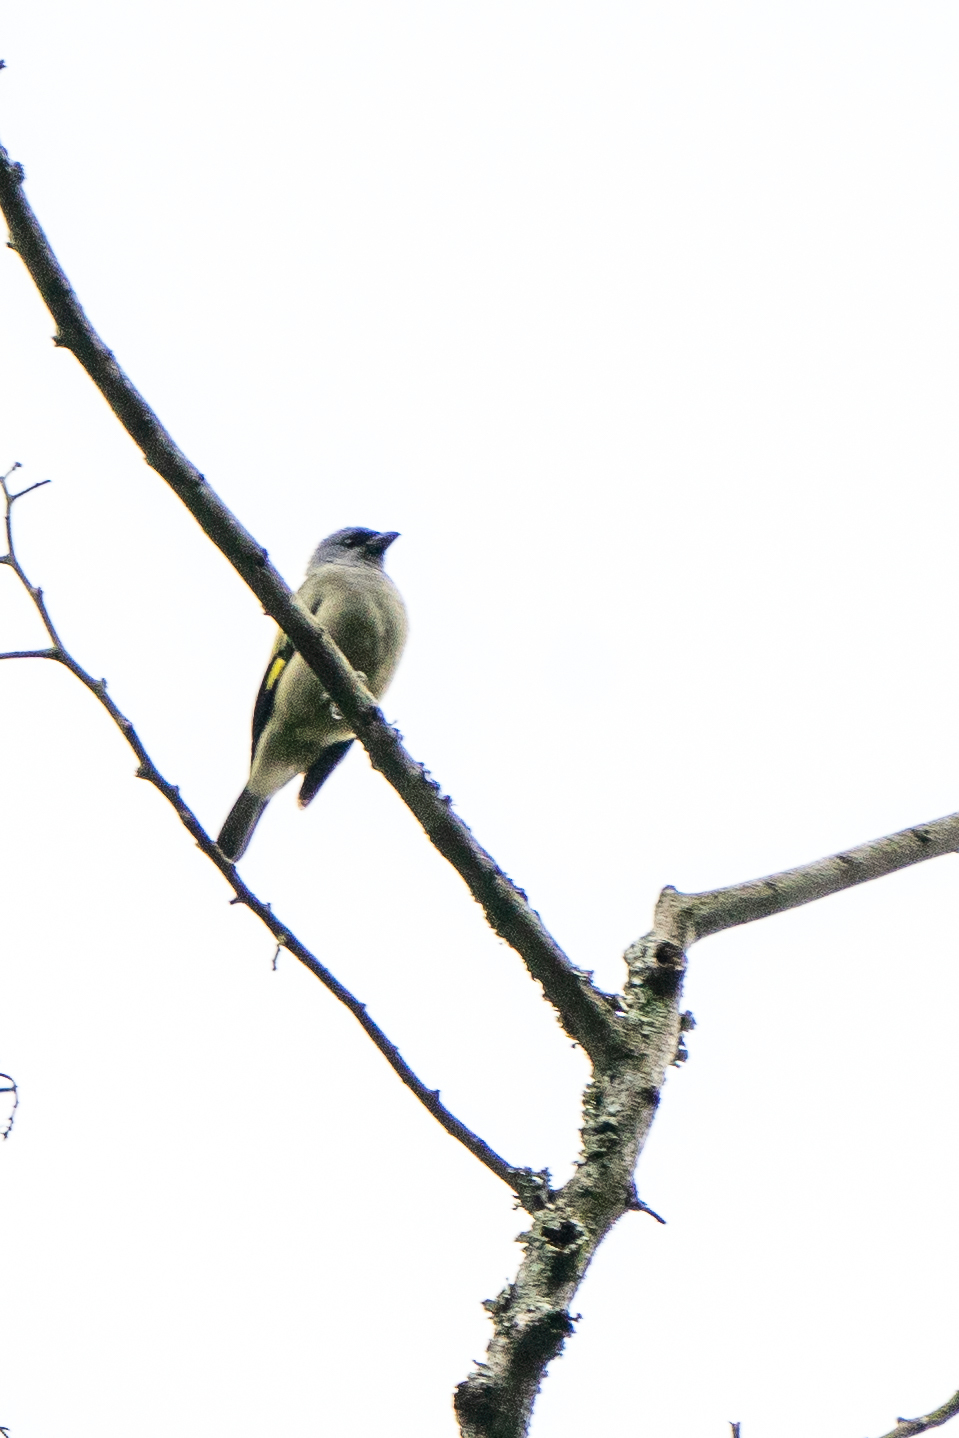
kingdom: Animalia
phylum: Chordata
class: Aves
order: Passeriformes
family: Thraupidae
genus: Thraupis
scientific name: Thraupis abbas
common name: Yellow-winged tanager
